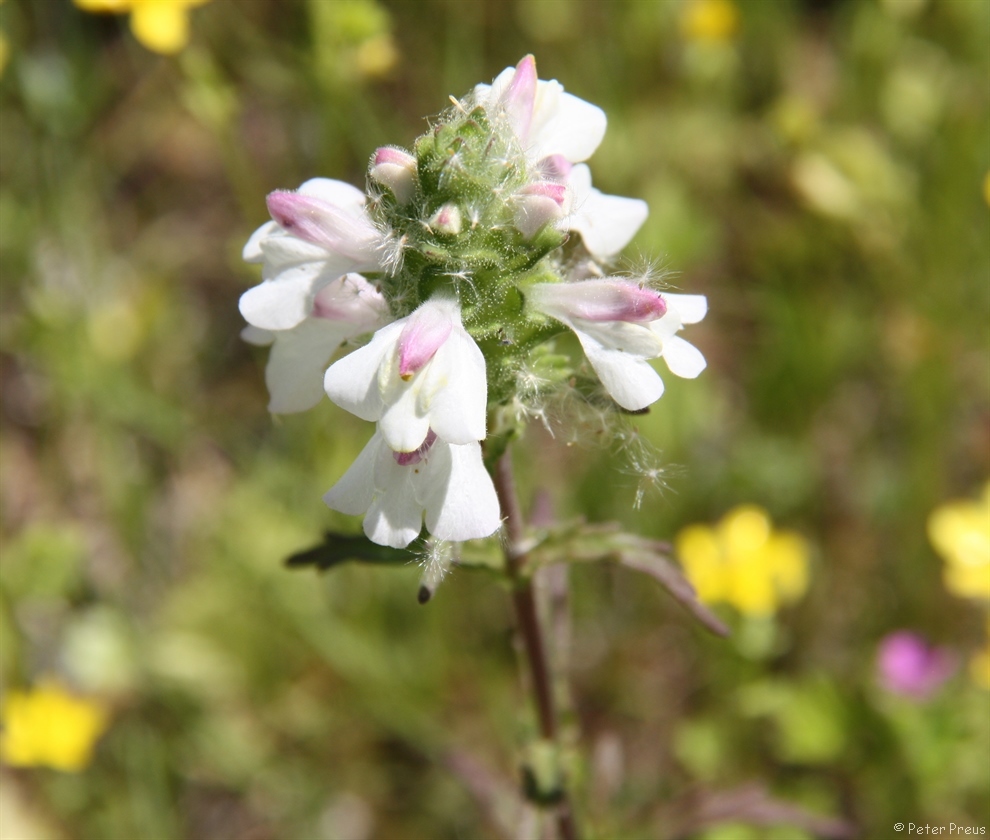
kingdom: Plantae
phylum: Tracheophyta
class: Magnoliopsida
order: Lamiales
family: Orobanchaceae
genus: Bellardia
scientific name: Bellardia trixago
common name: Mediterranean lineseed
